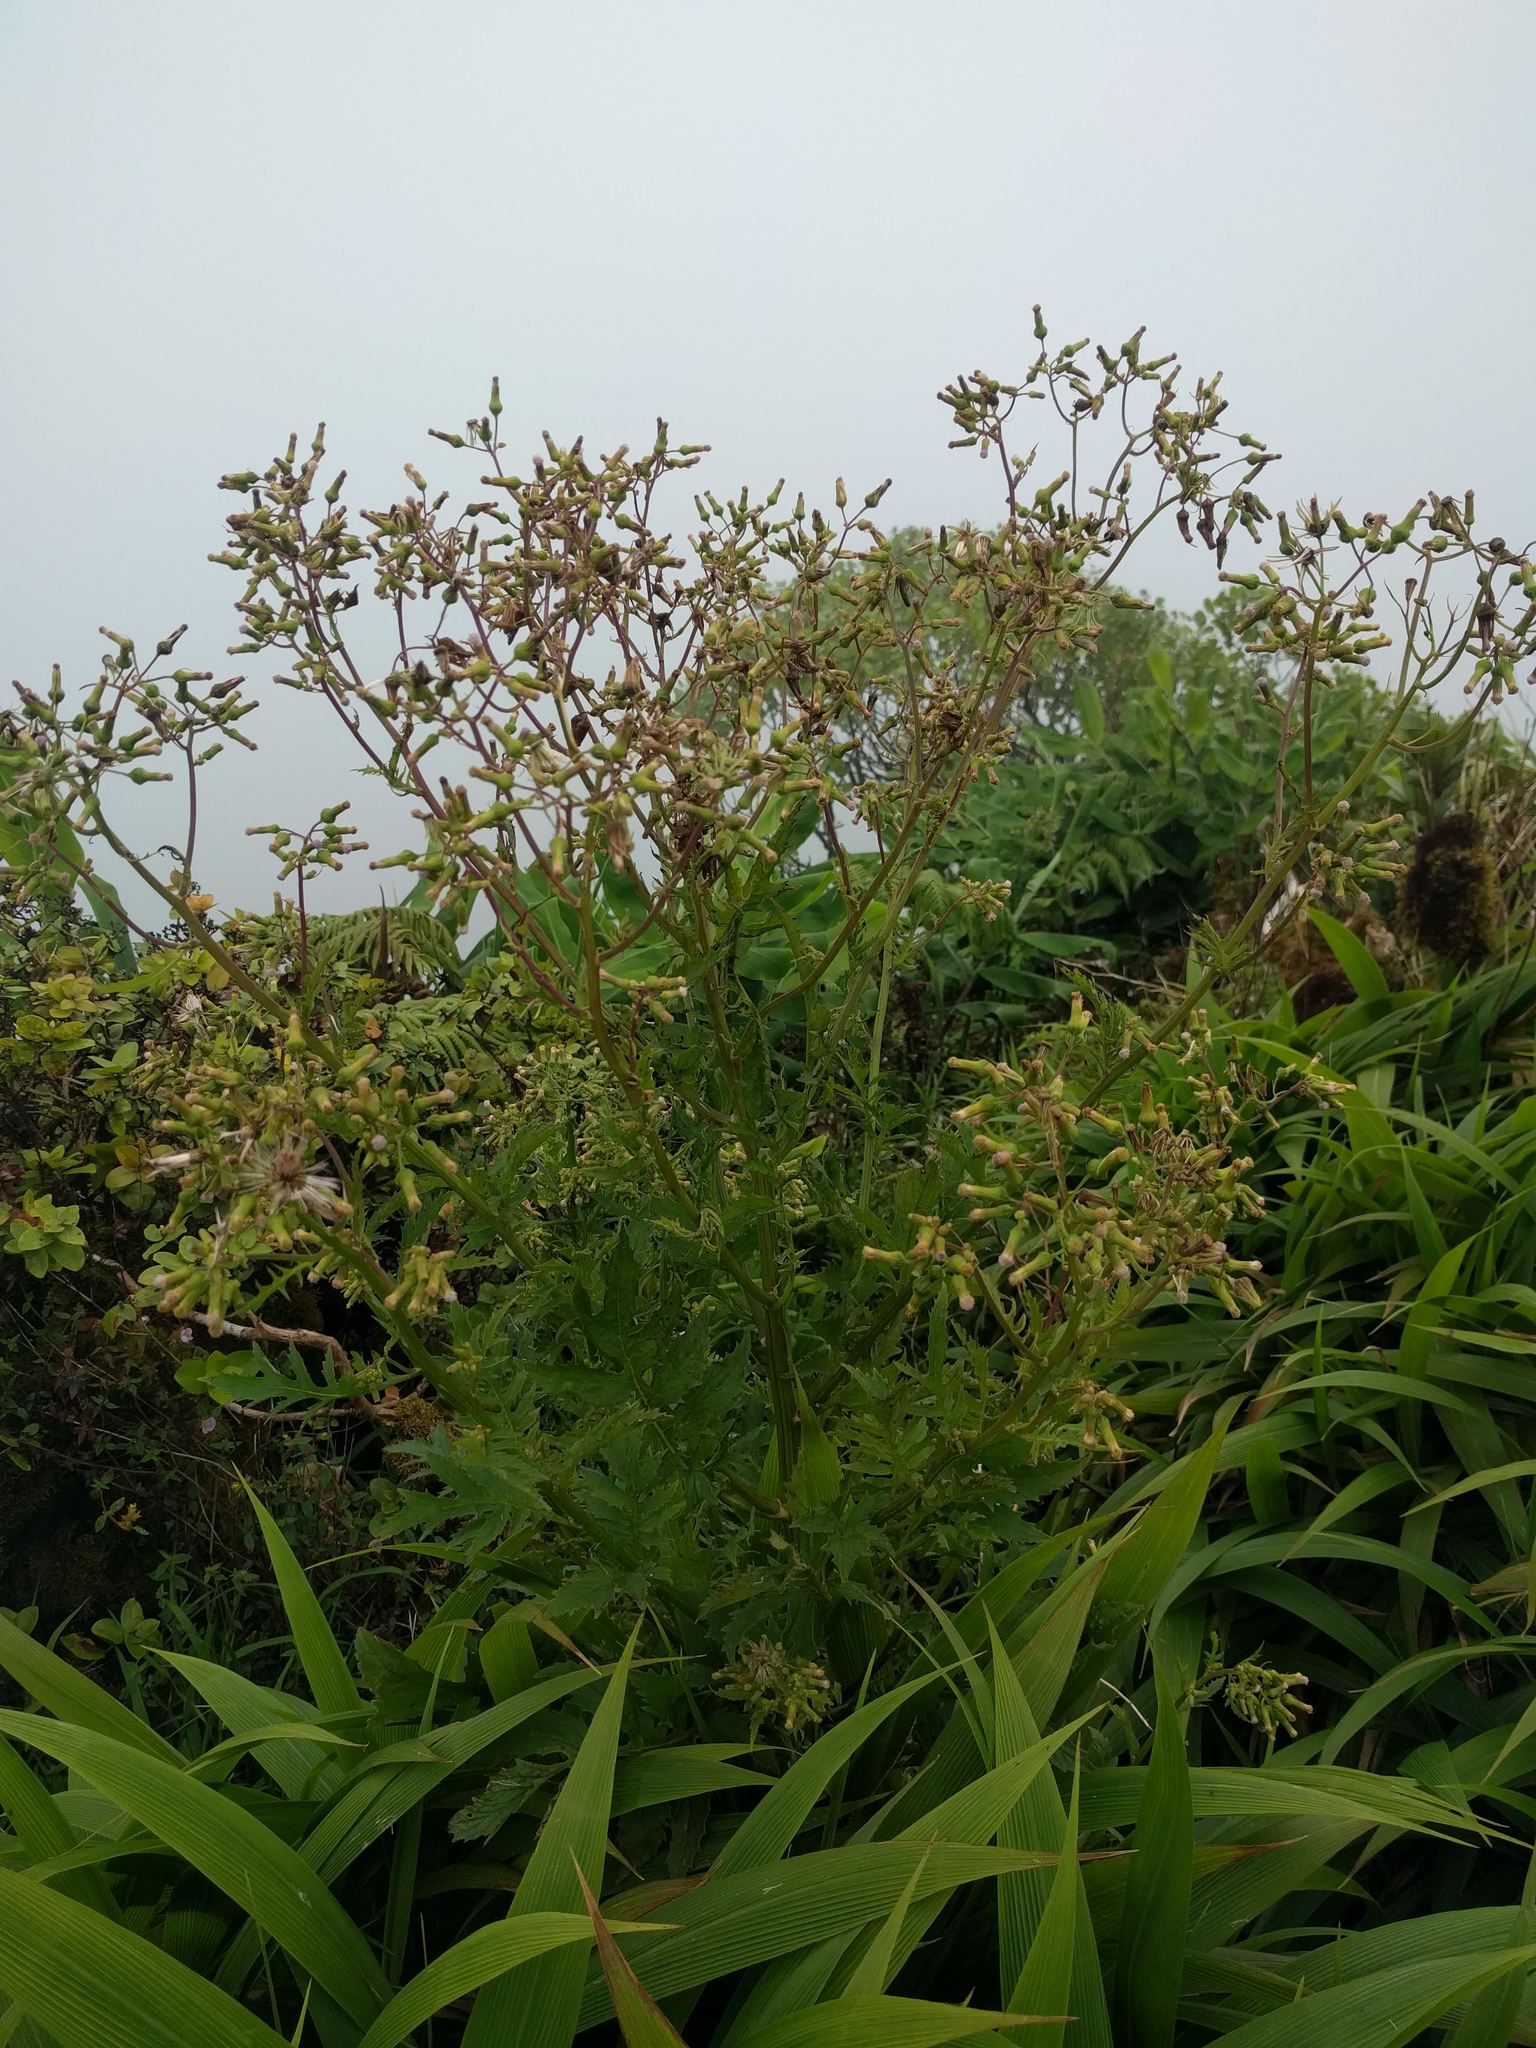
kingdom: Plantae
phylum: Tracheophyta
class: Magnoliopsida
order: Asterales
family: Asteraceae
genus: Erechtites
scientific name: Erechtites valerianifolius
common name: Tropical burnweed
